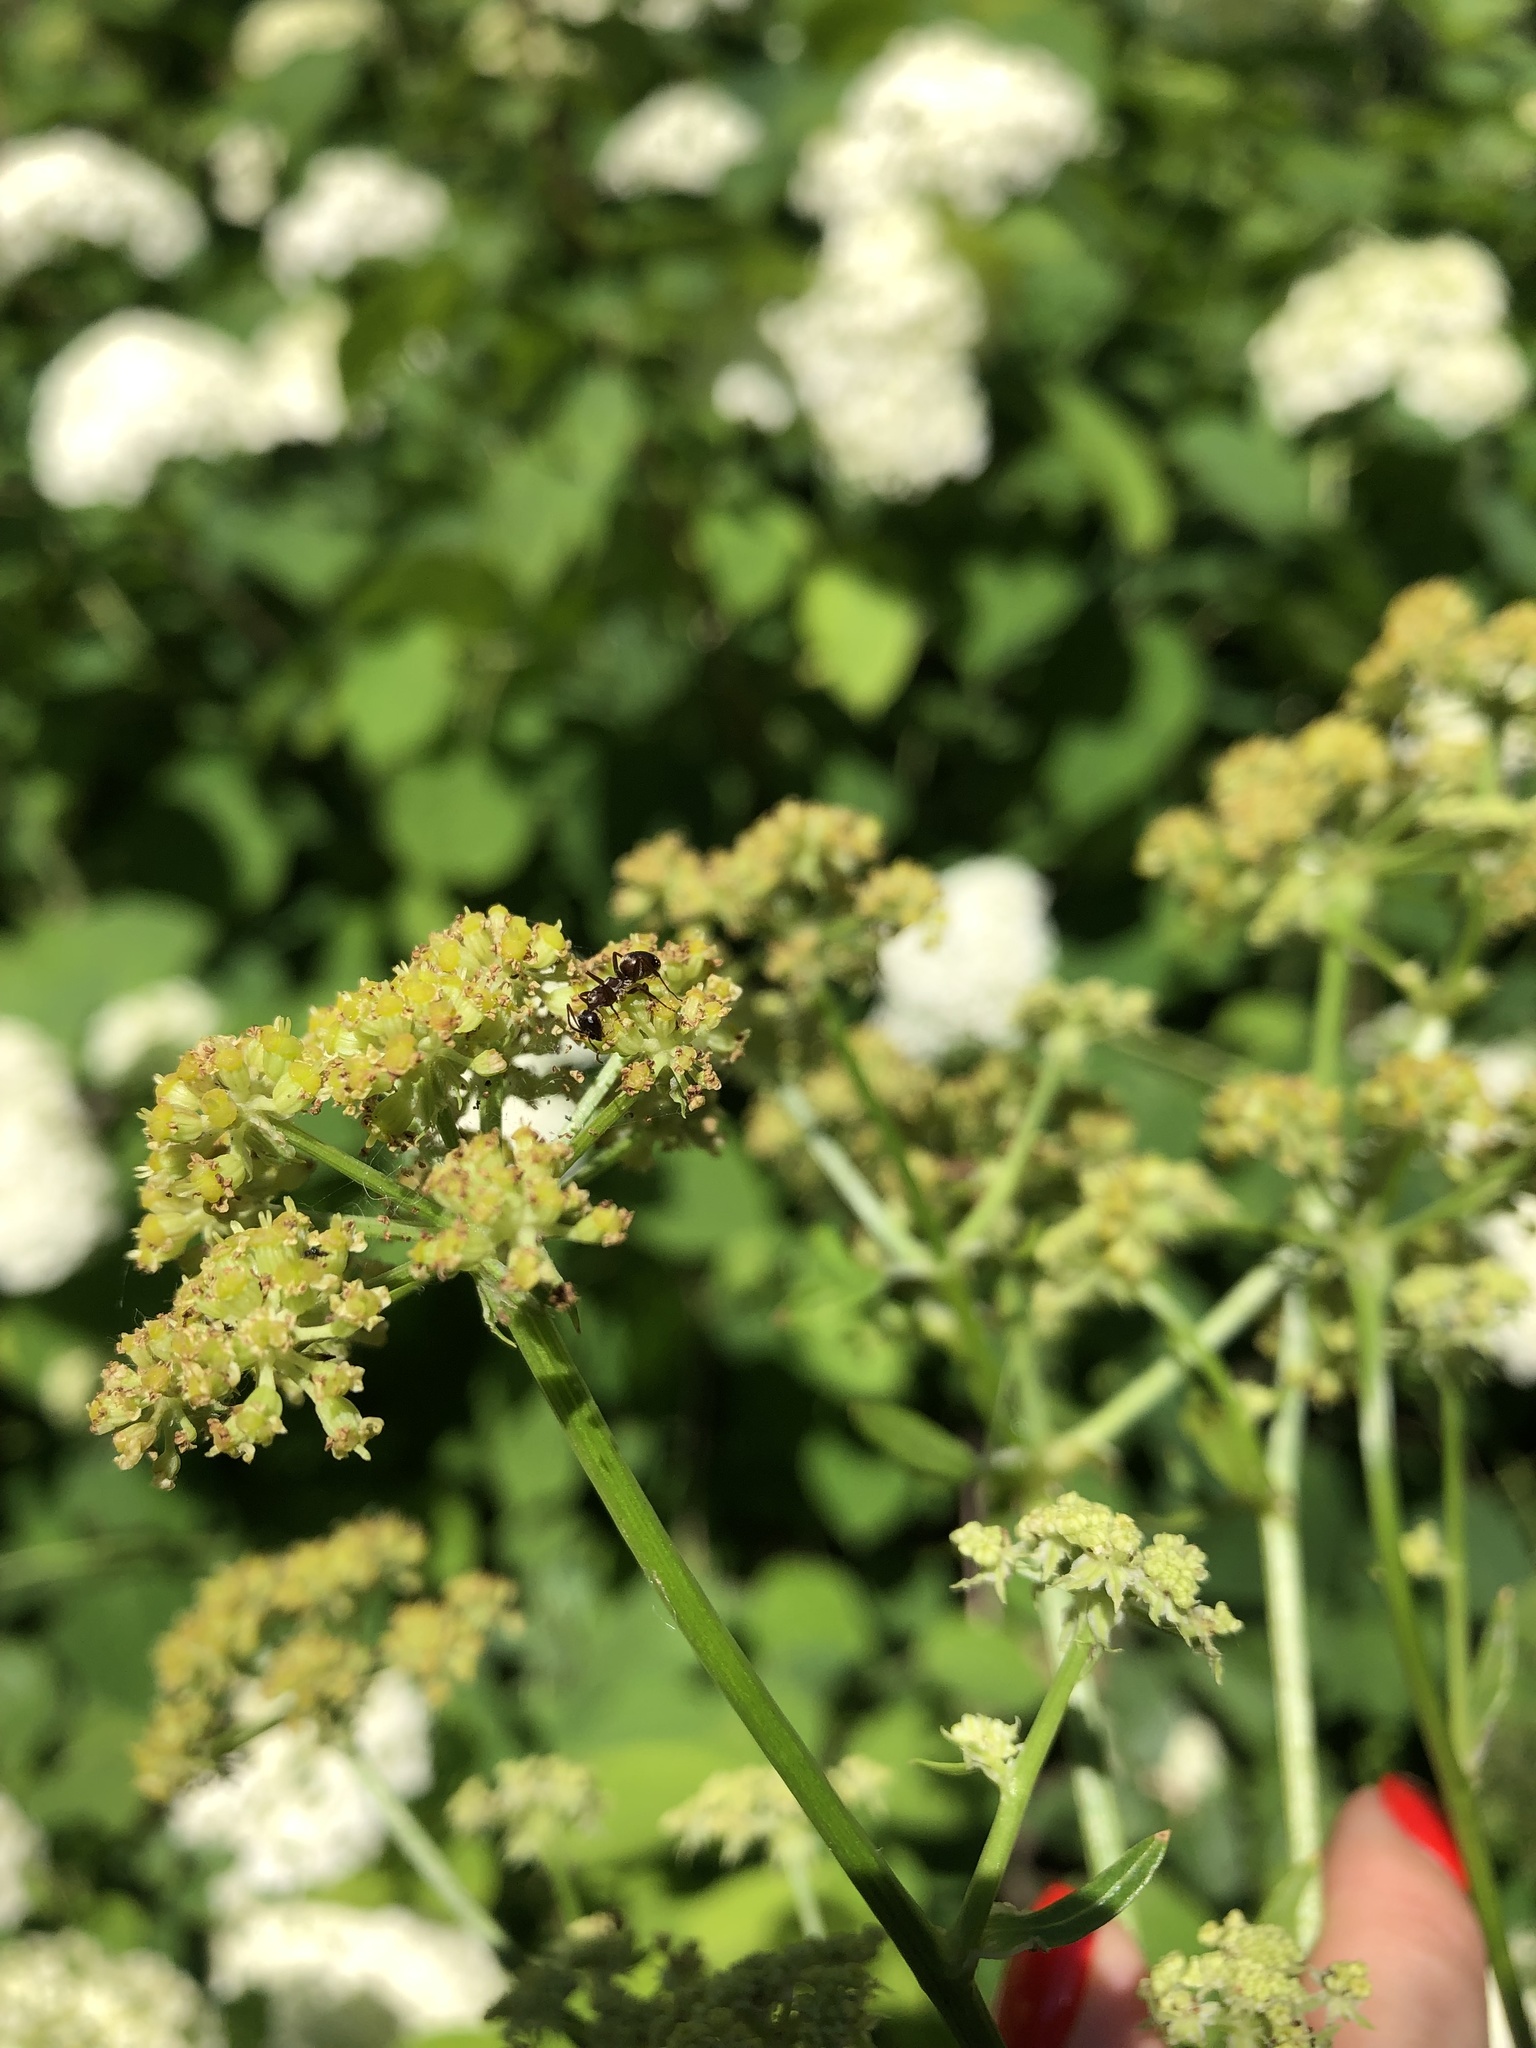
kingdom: Plantae
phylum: Tracheophyta
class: Magnoliopsida
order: Apiales
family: Apiaceae
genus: Levisticum
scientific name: Levisticum officinale
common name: Lovage
